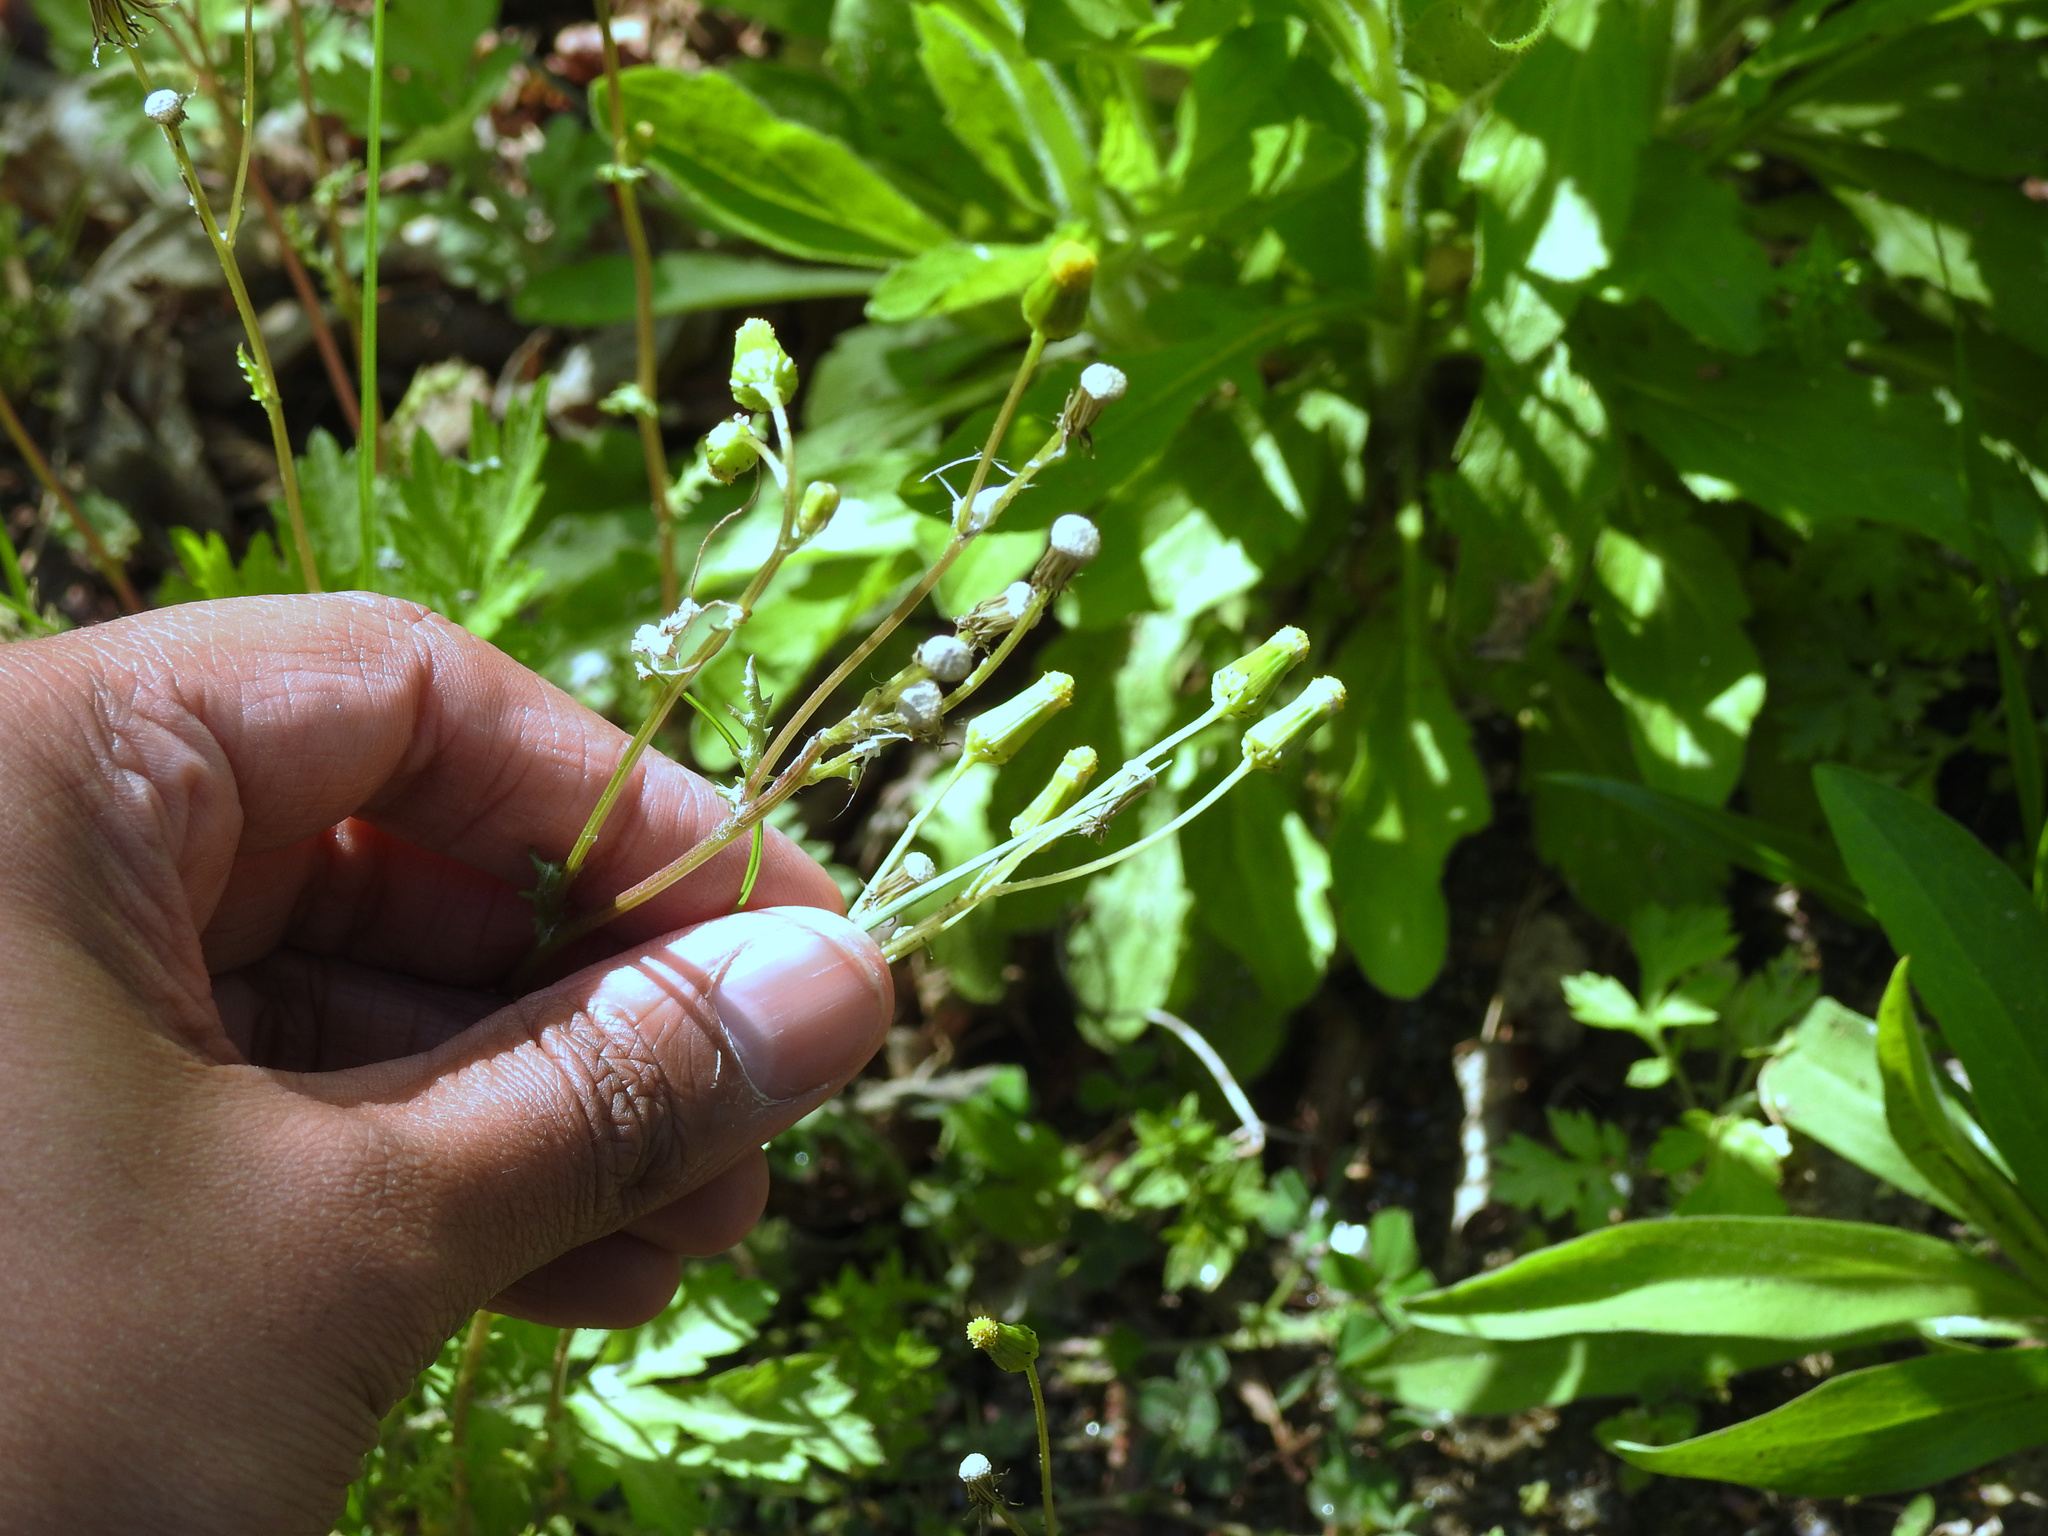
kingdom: Plantae
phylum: Tracheophyta
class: Magnoliopsida
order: Asterales
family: Asteraceae
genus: Senecio
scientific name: Senecio vulgaris
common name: Old-man-in-the-spring
